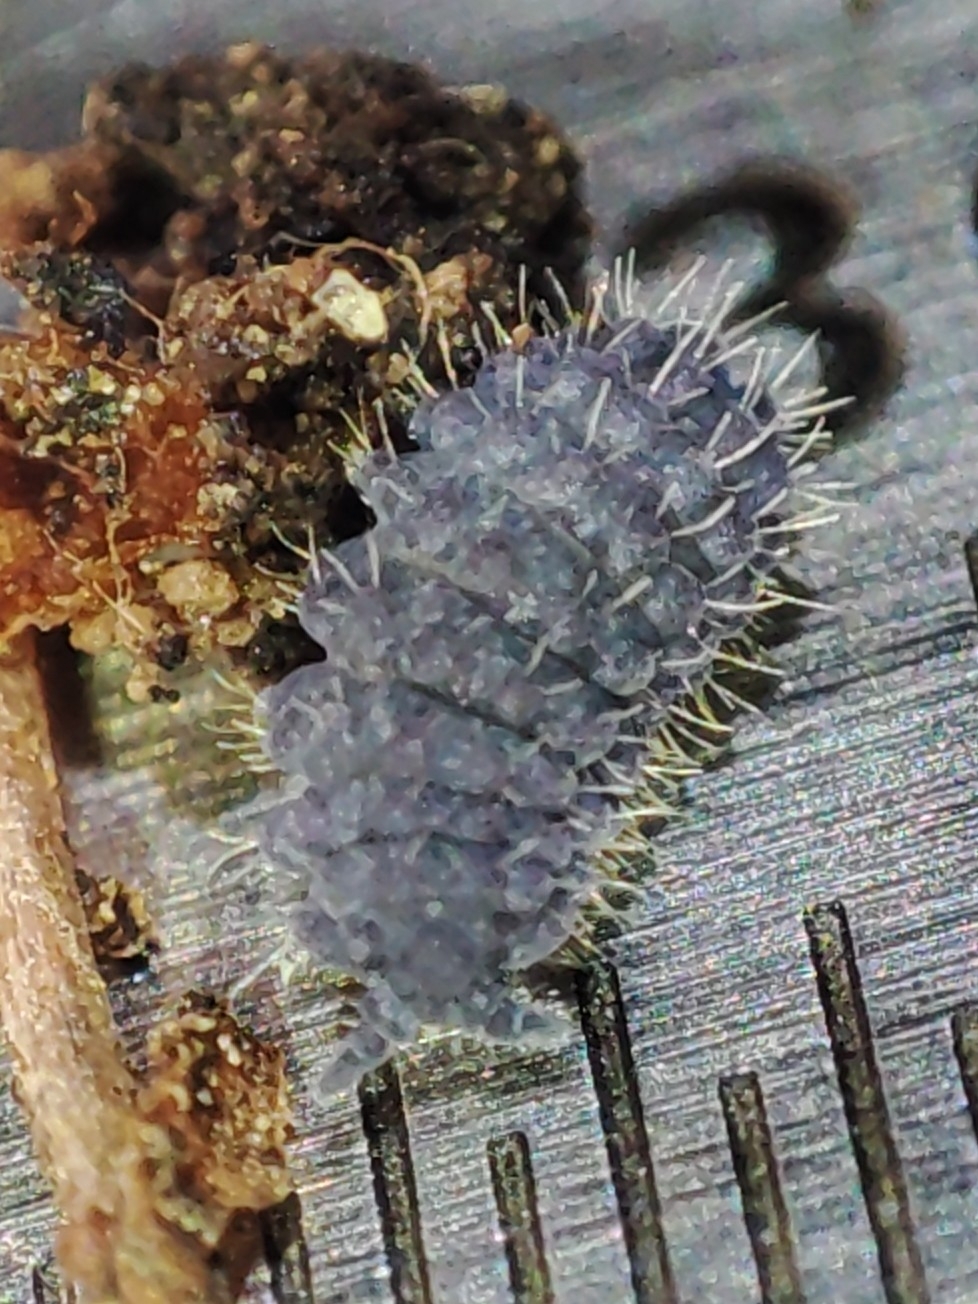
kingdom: Animalia
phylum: Arthropoda
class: Collembola
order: Poduromorpha
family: Neanuridae
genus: Morulina
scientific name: Morulina verrucosa
